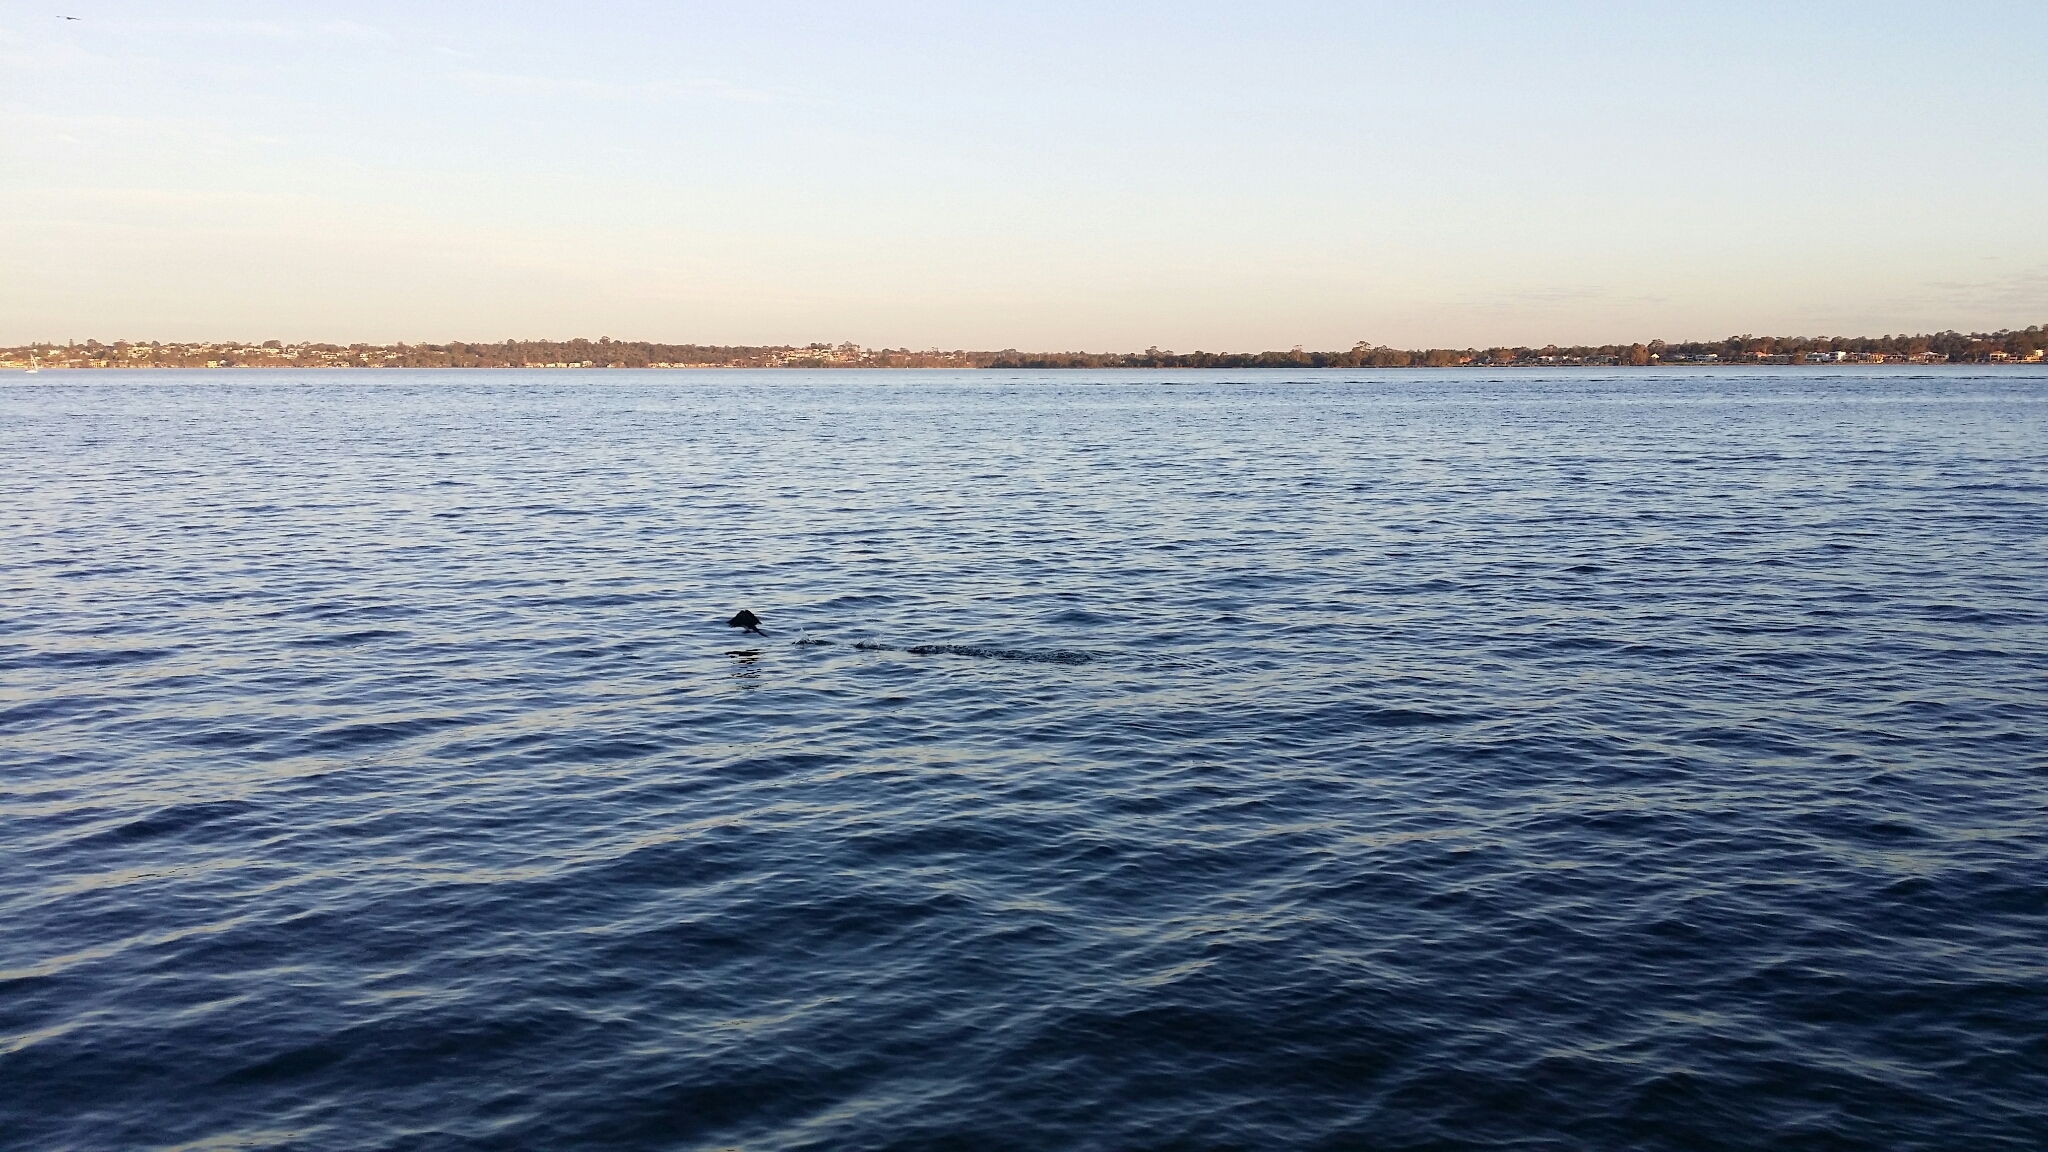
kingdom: Animalia
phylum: Chordata
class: Aves
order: Suliformes
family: Phalacrocoracidae
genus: Microcarbo
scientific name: Microcarbo melanoleucos
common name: Little pied cormorant
